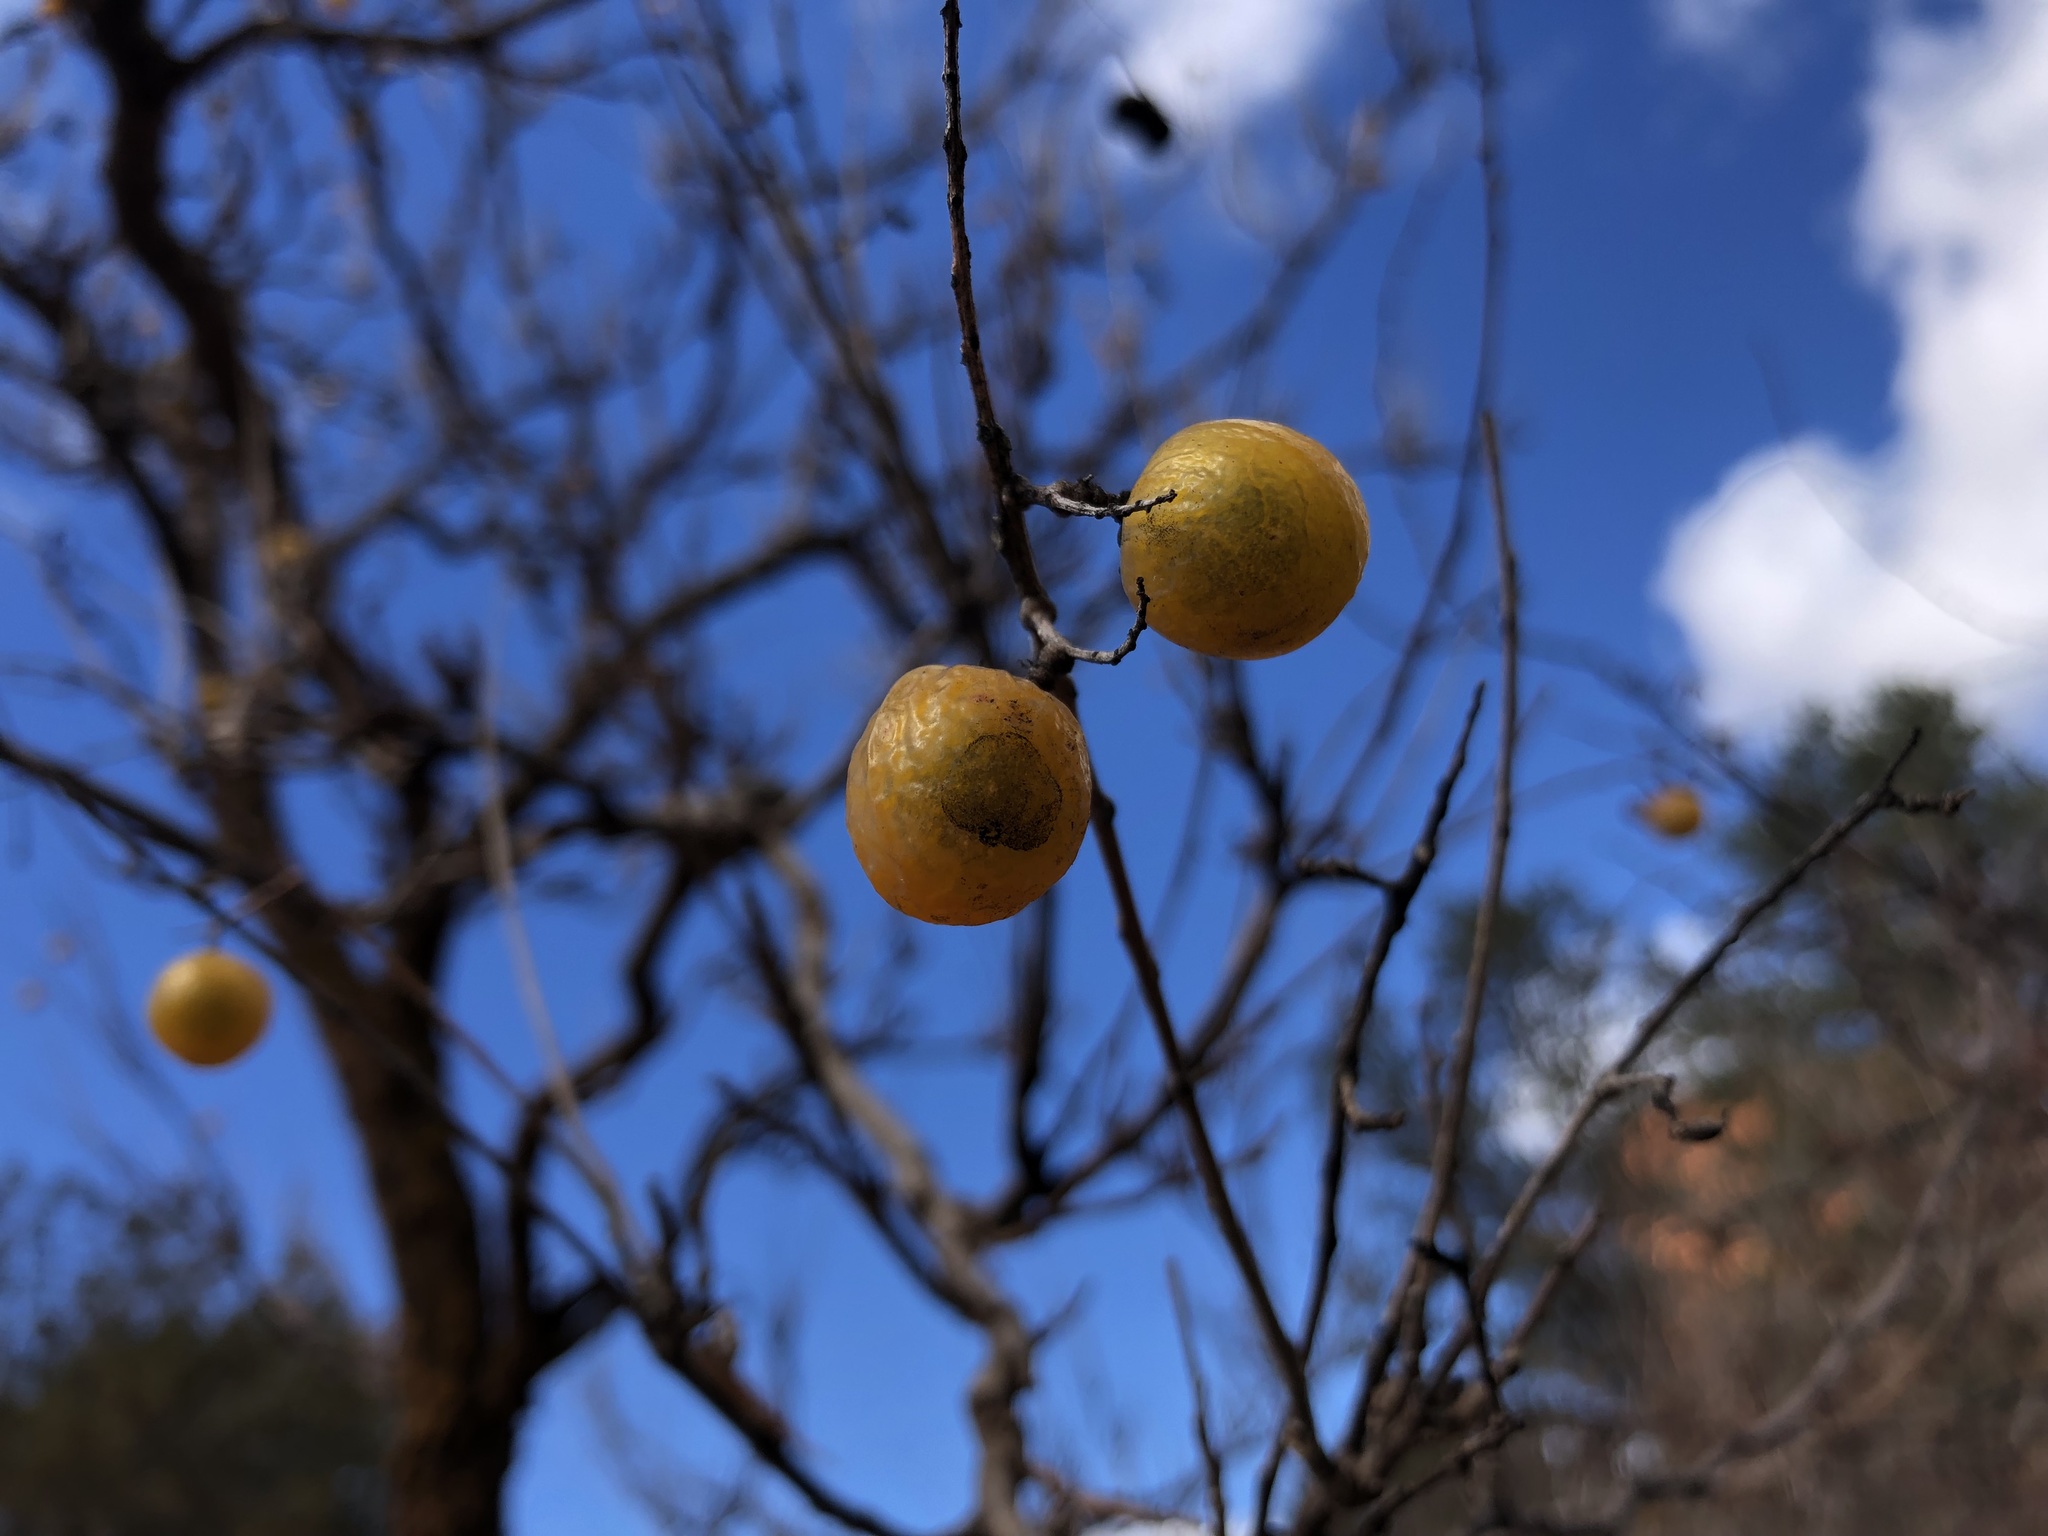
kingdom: Plantae
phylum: Tracheophyta
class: Magnoliopsida
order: Sapindales
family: Sapindaceae
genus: Sapindus
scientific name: Sapindus drummondii
